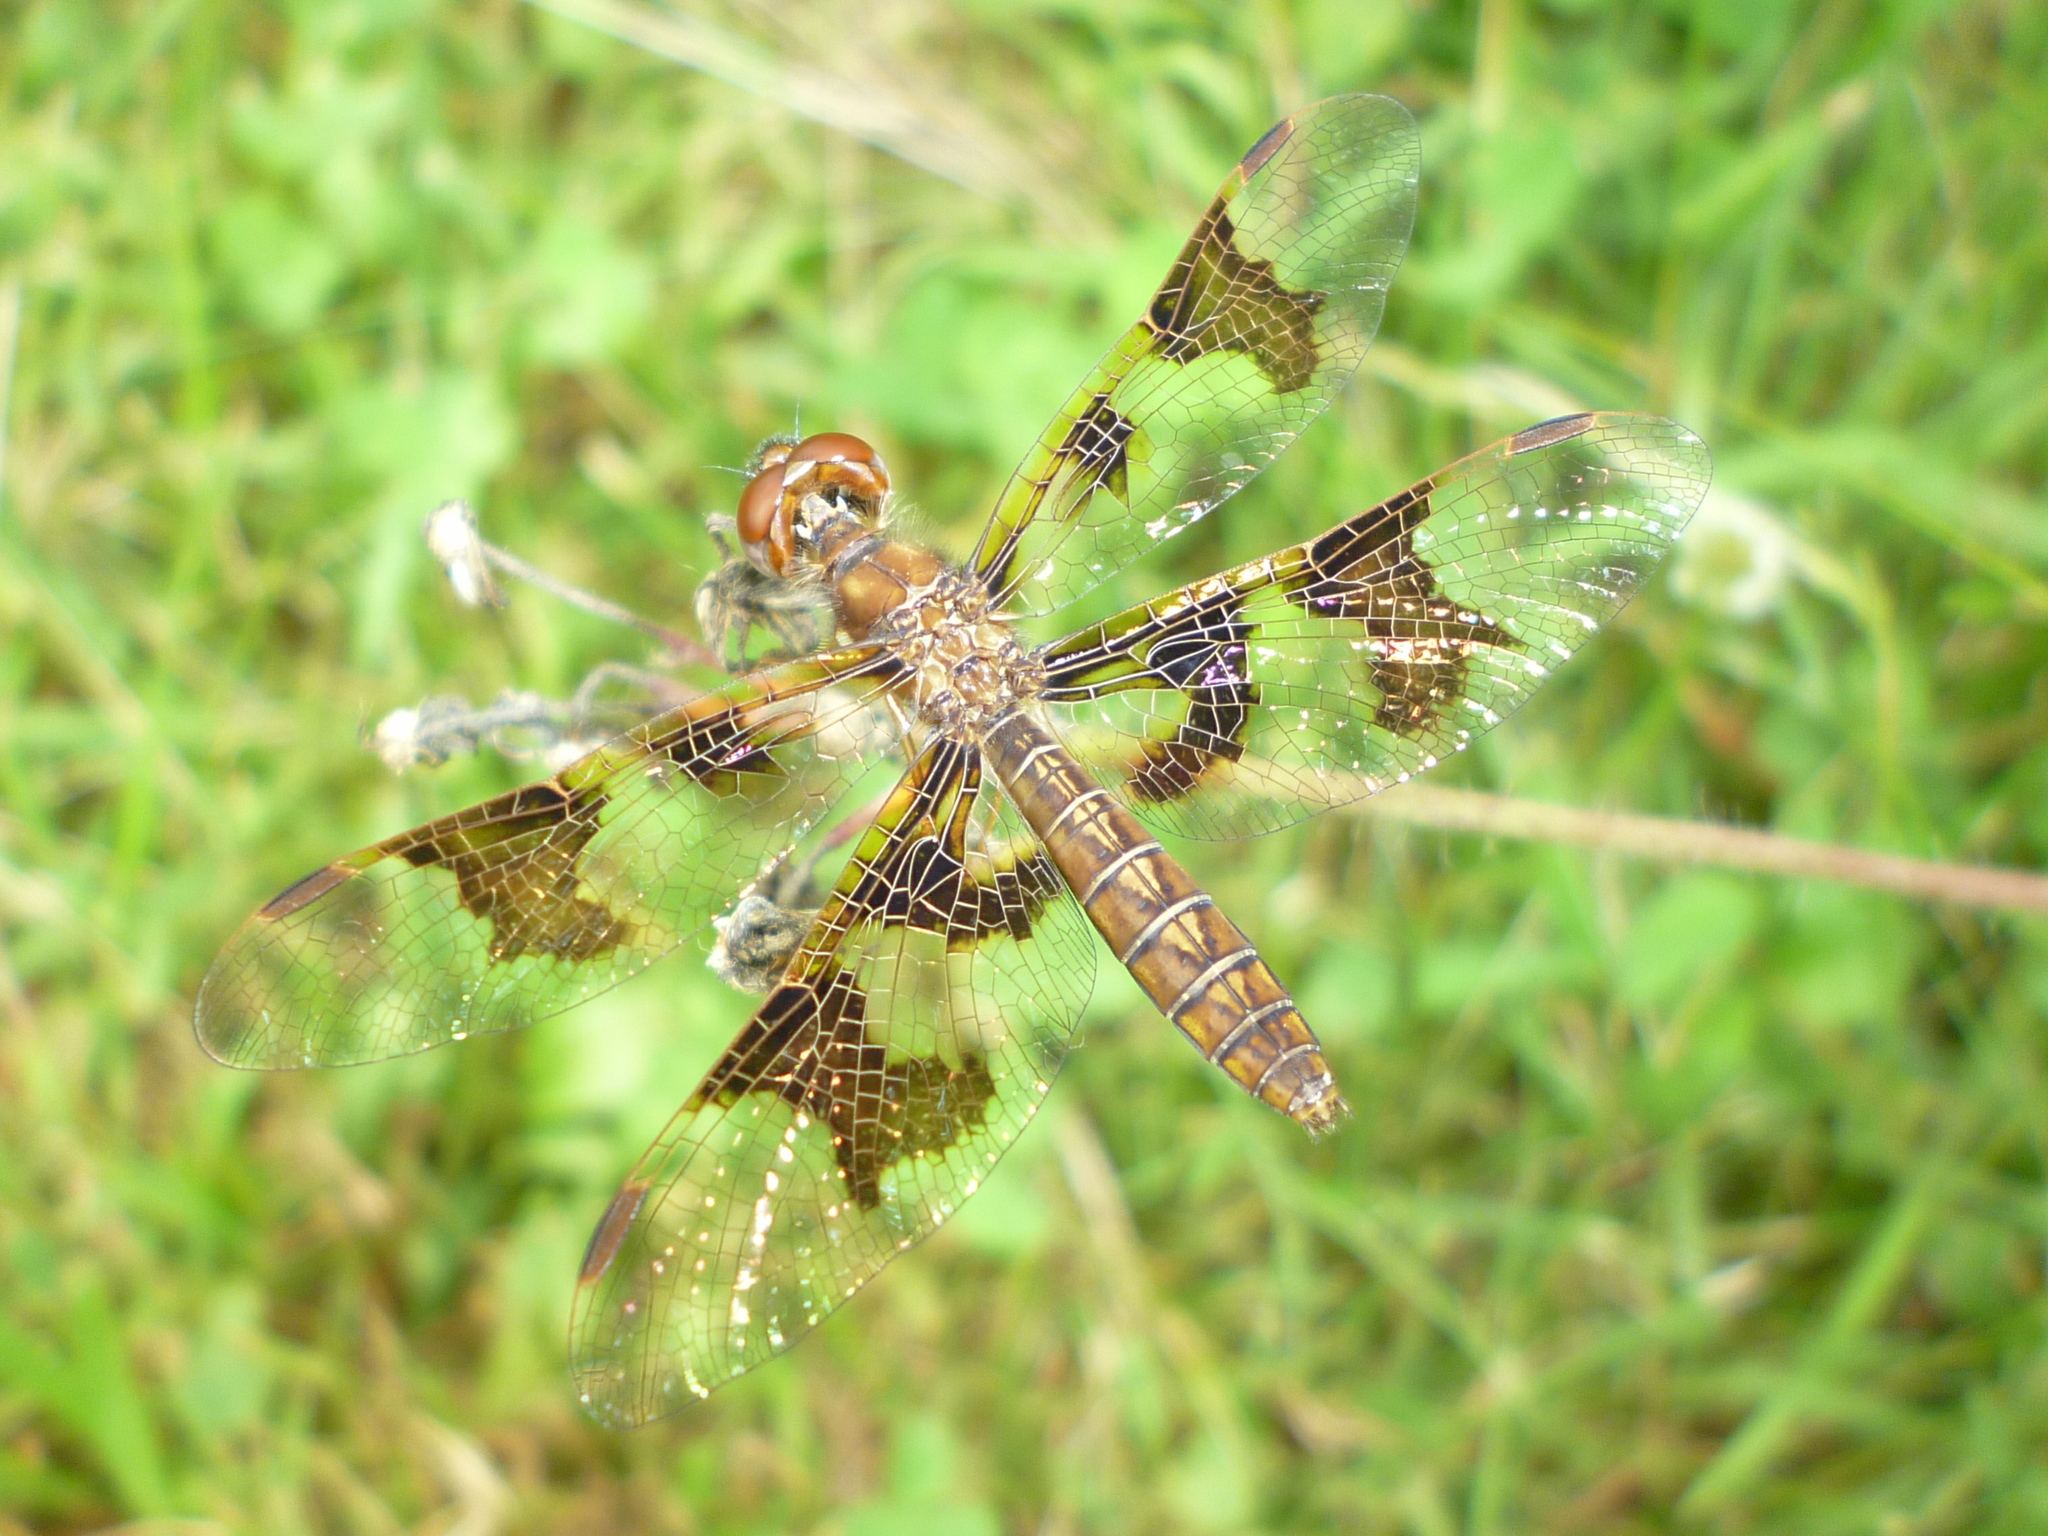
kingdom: Animalia
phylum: Arthropoda
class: Insecta
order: Odonata
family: Libellulidae
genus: Perithemis
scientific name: Perithemis tenera
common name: Eastern amberwing
